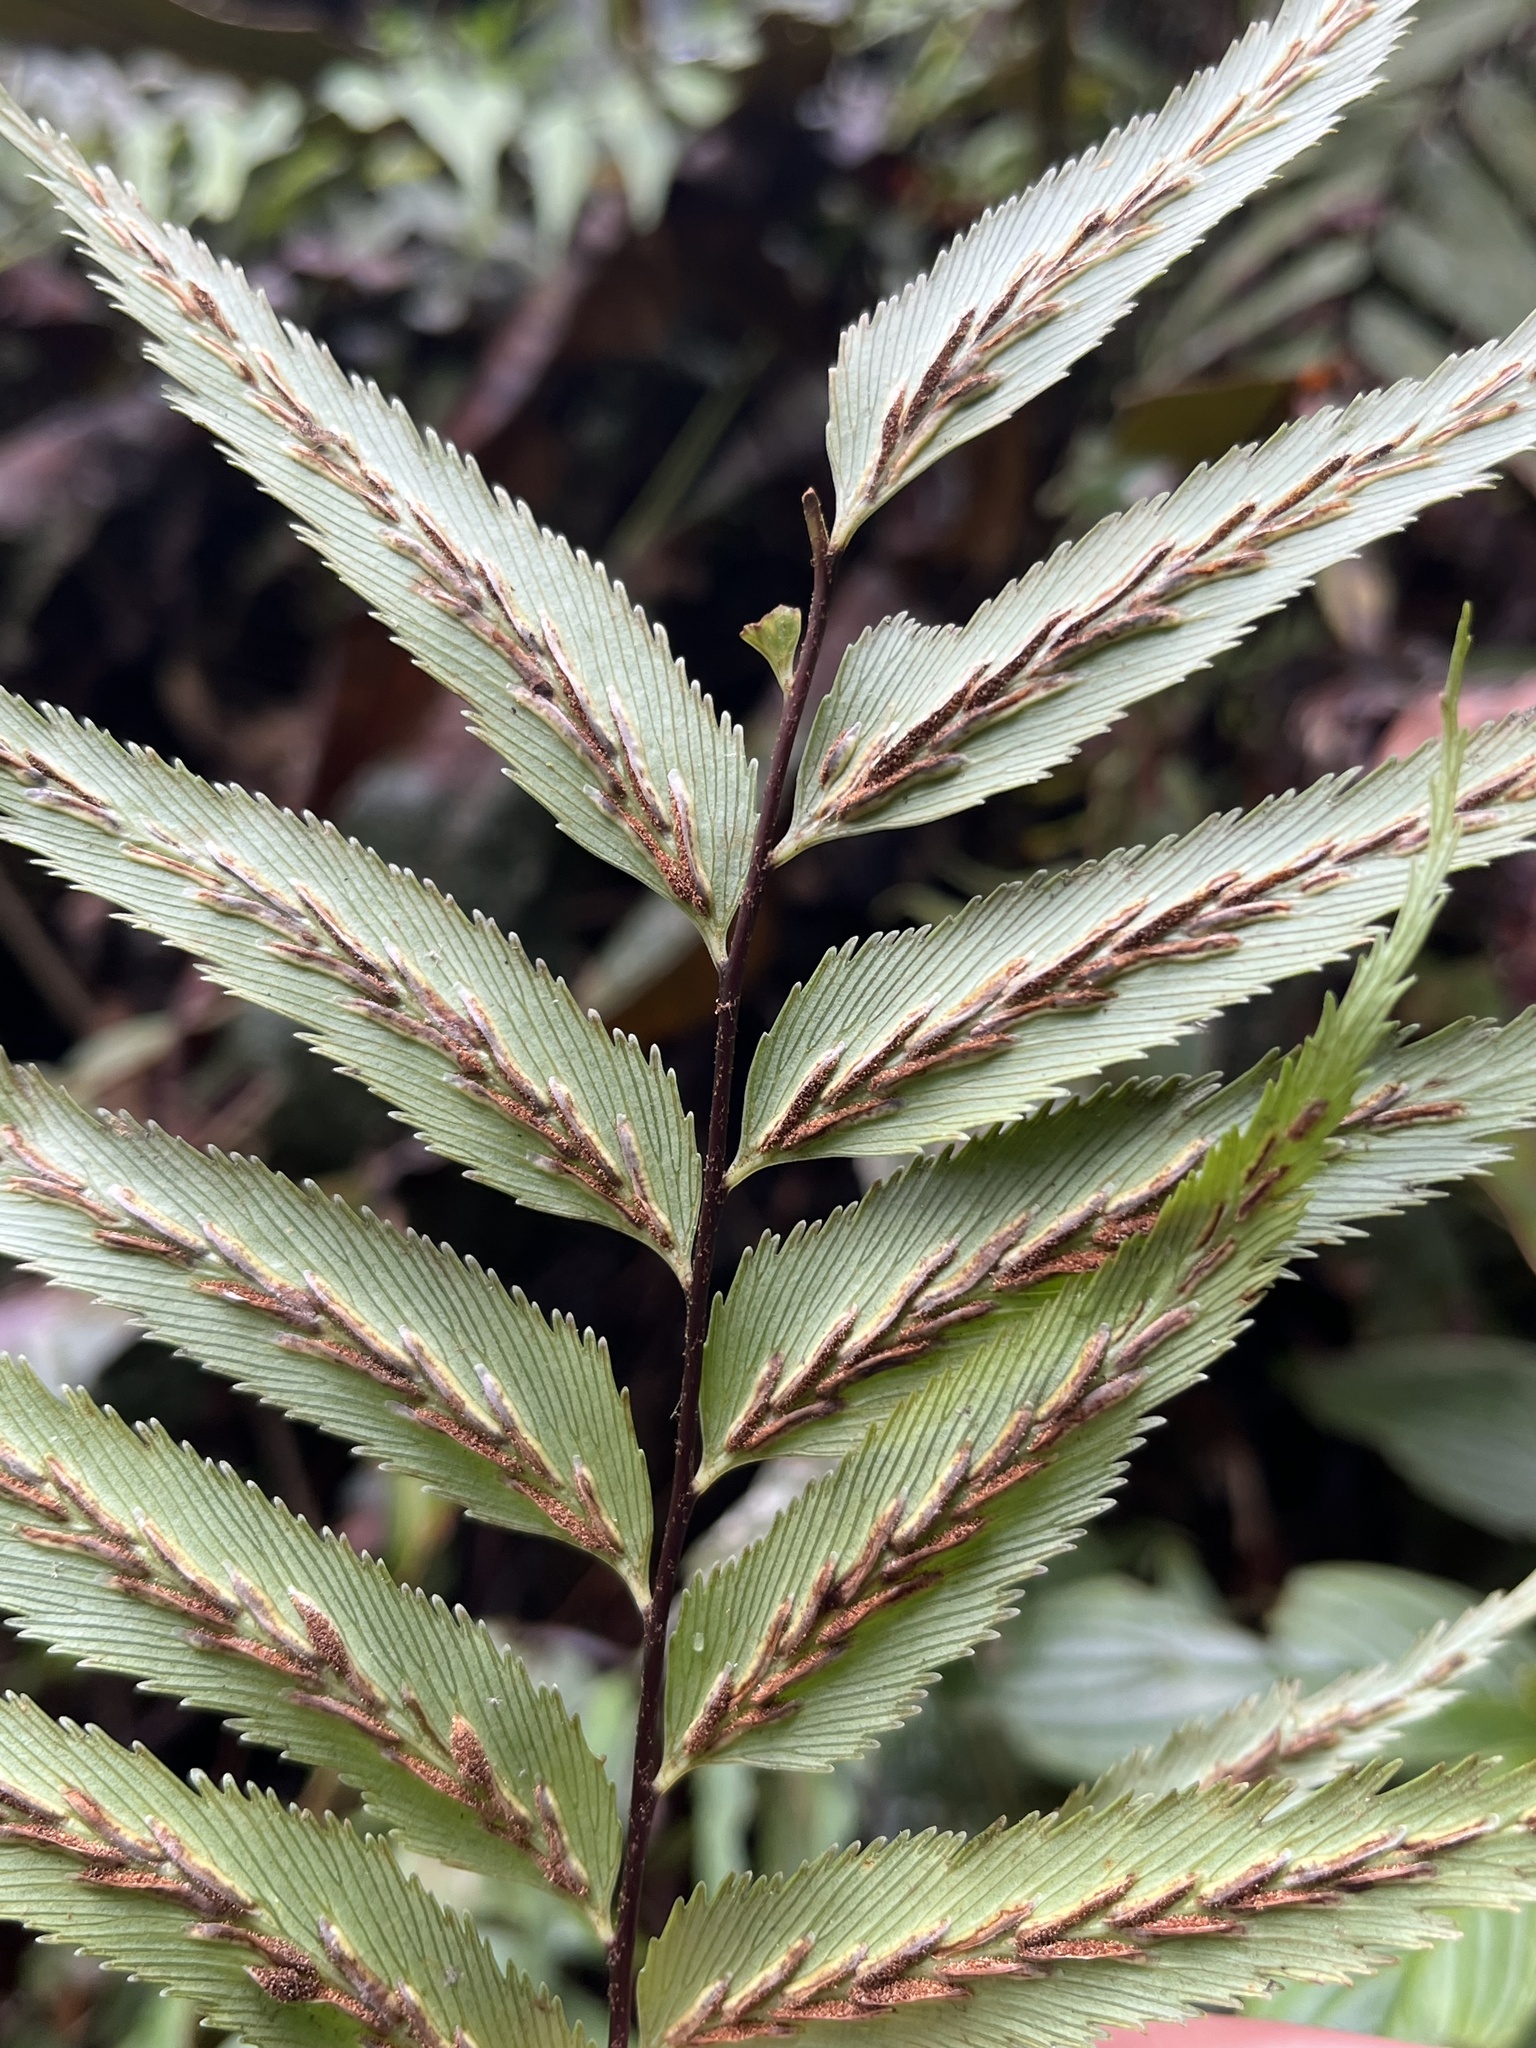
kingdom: Plantae
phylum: Tracheophyta
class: Polypodiopsida
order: Polypodiales
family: Aspleniaceae
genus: Asplenium
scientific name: Asplenium serra
